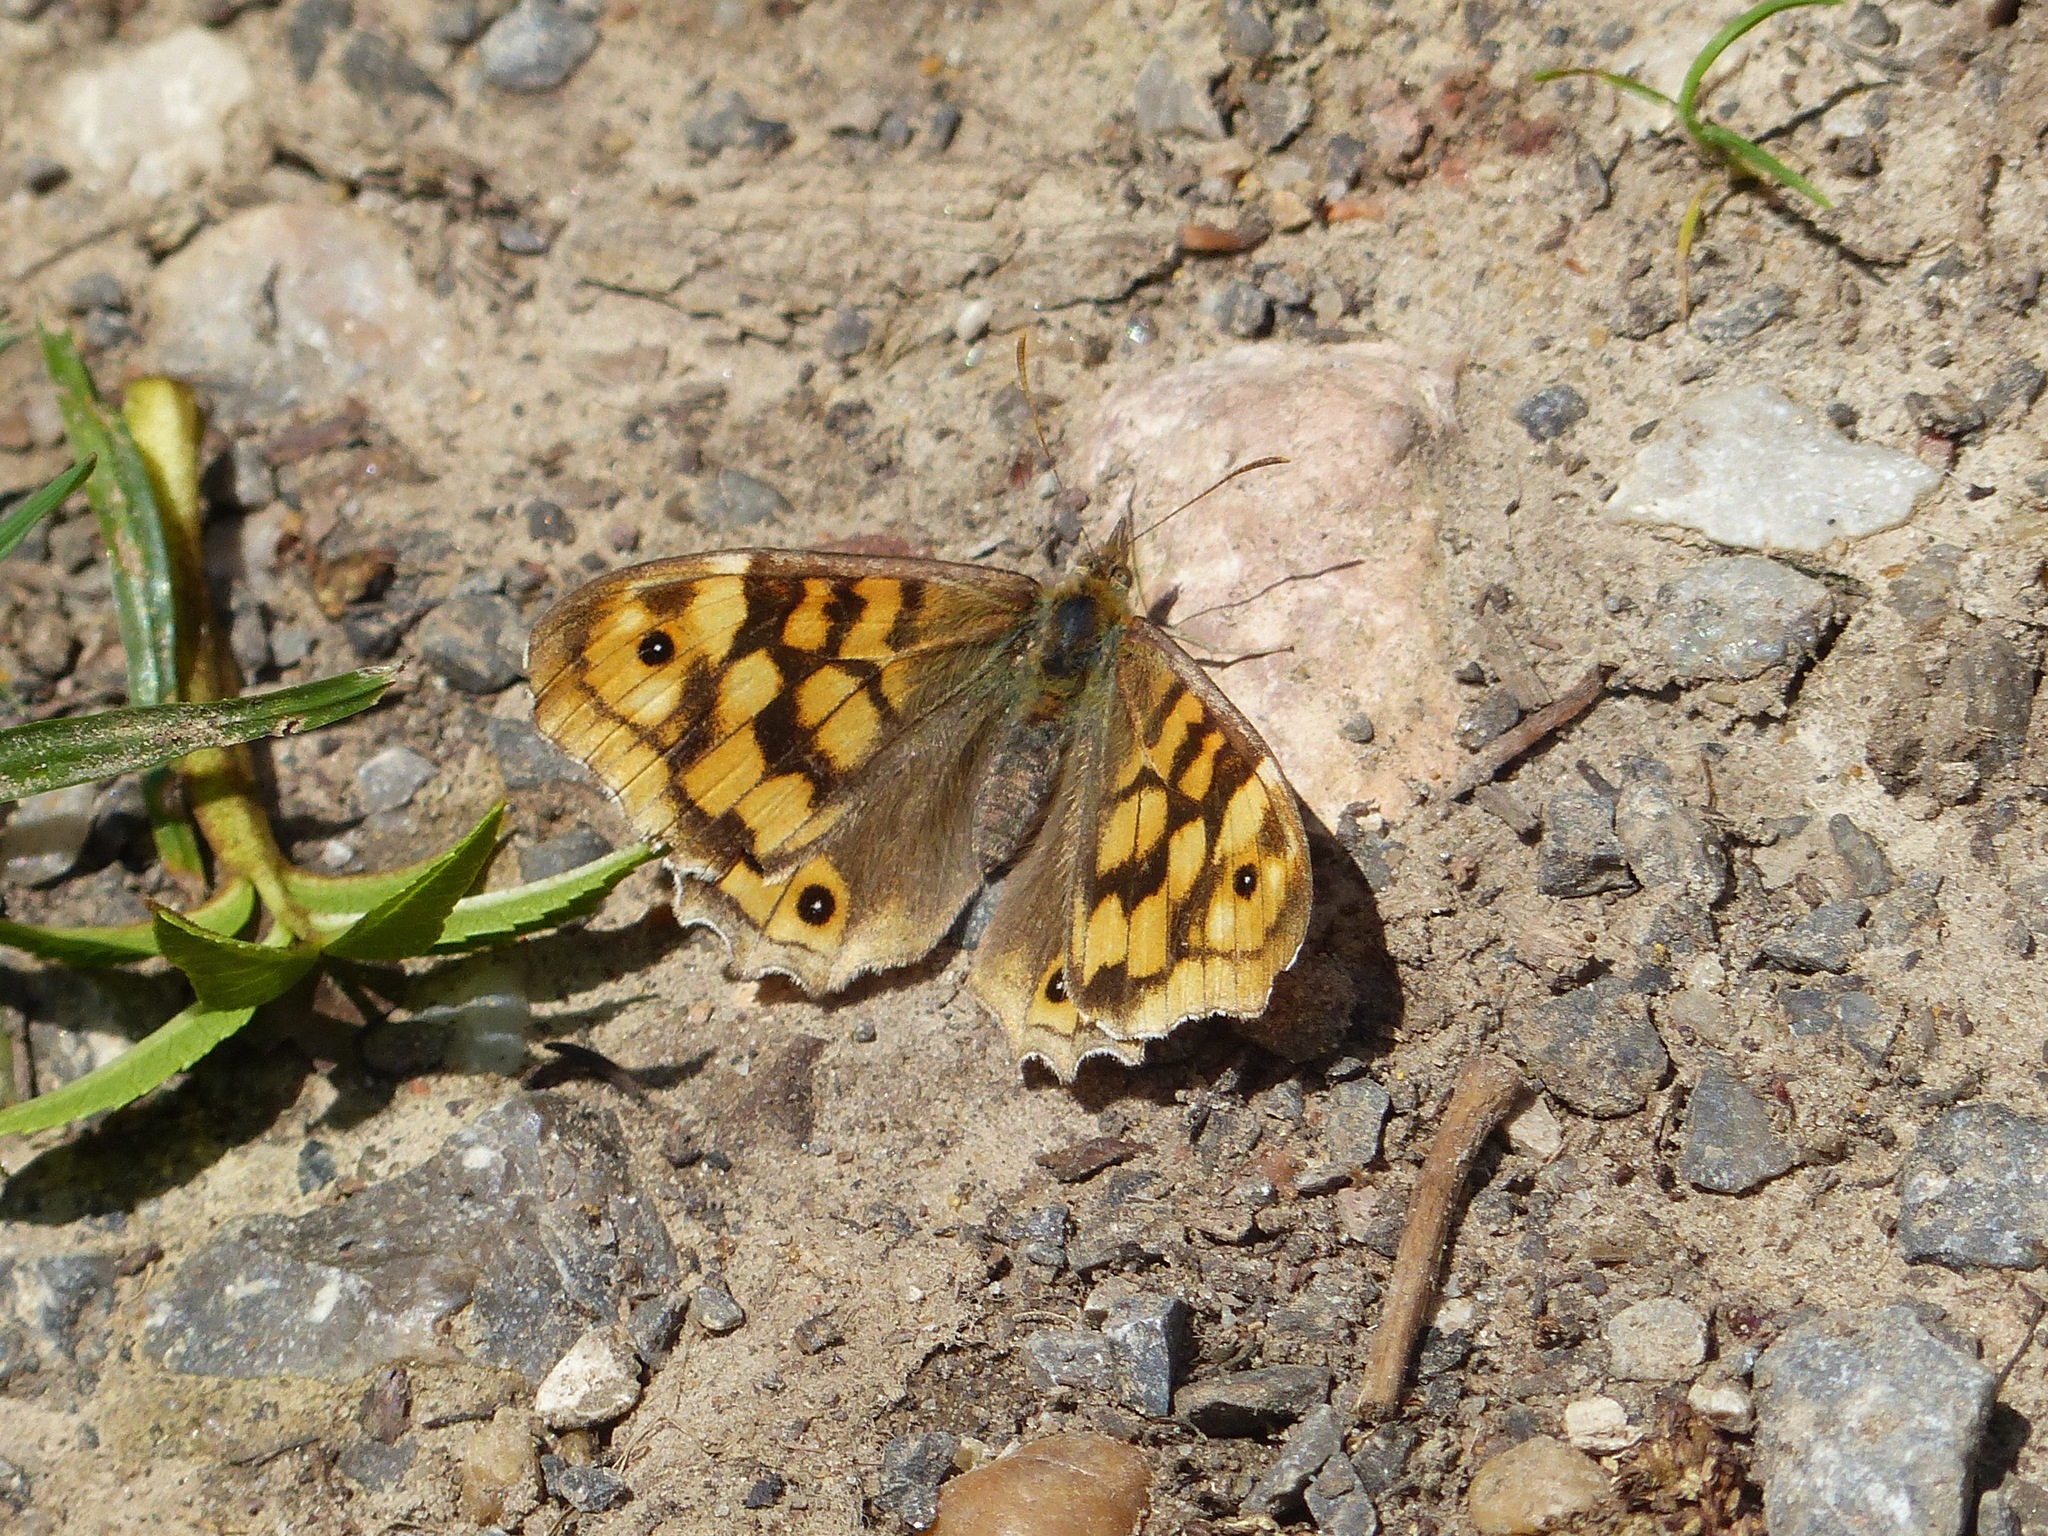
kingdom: Animalia
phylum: Arthropoda
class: Insecta
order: Lepidoptera
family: Nymphalidae
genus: Pararge
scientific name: Pararge aegeria
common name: Speckled wood
